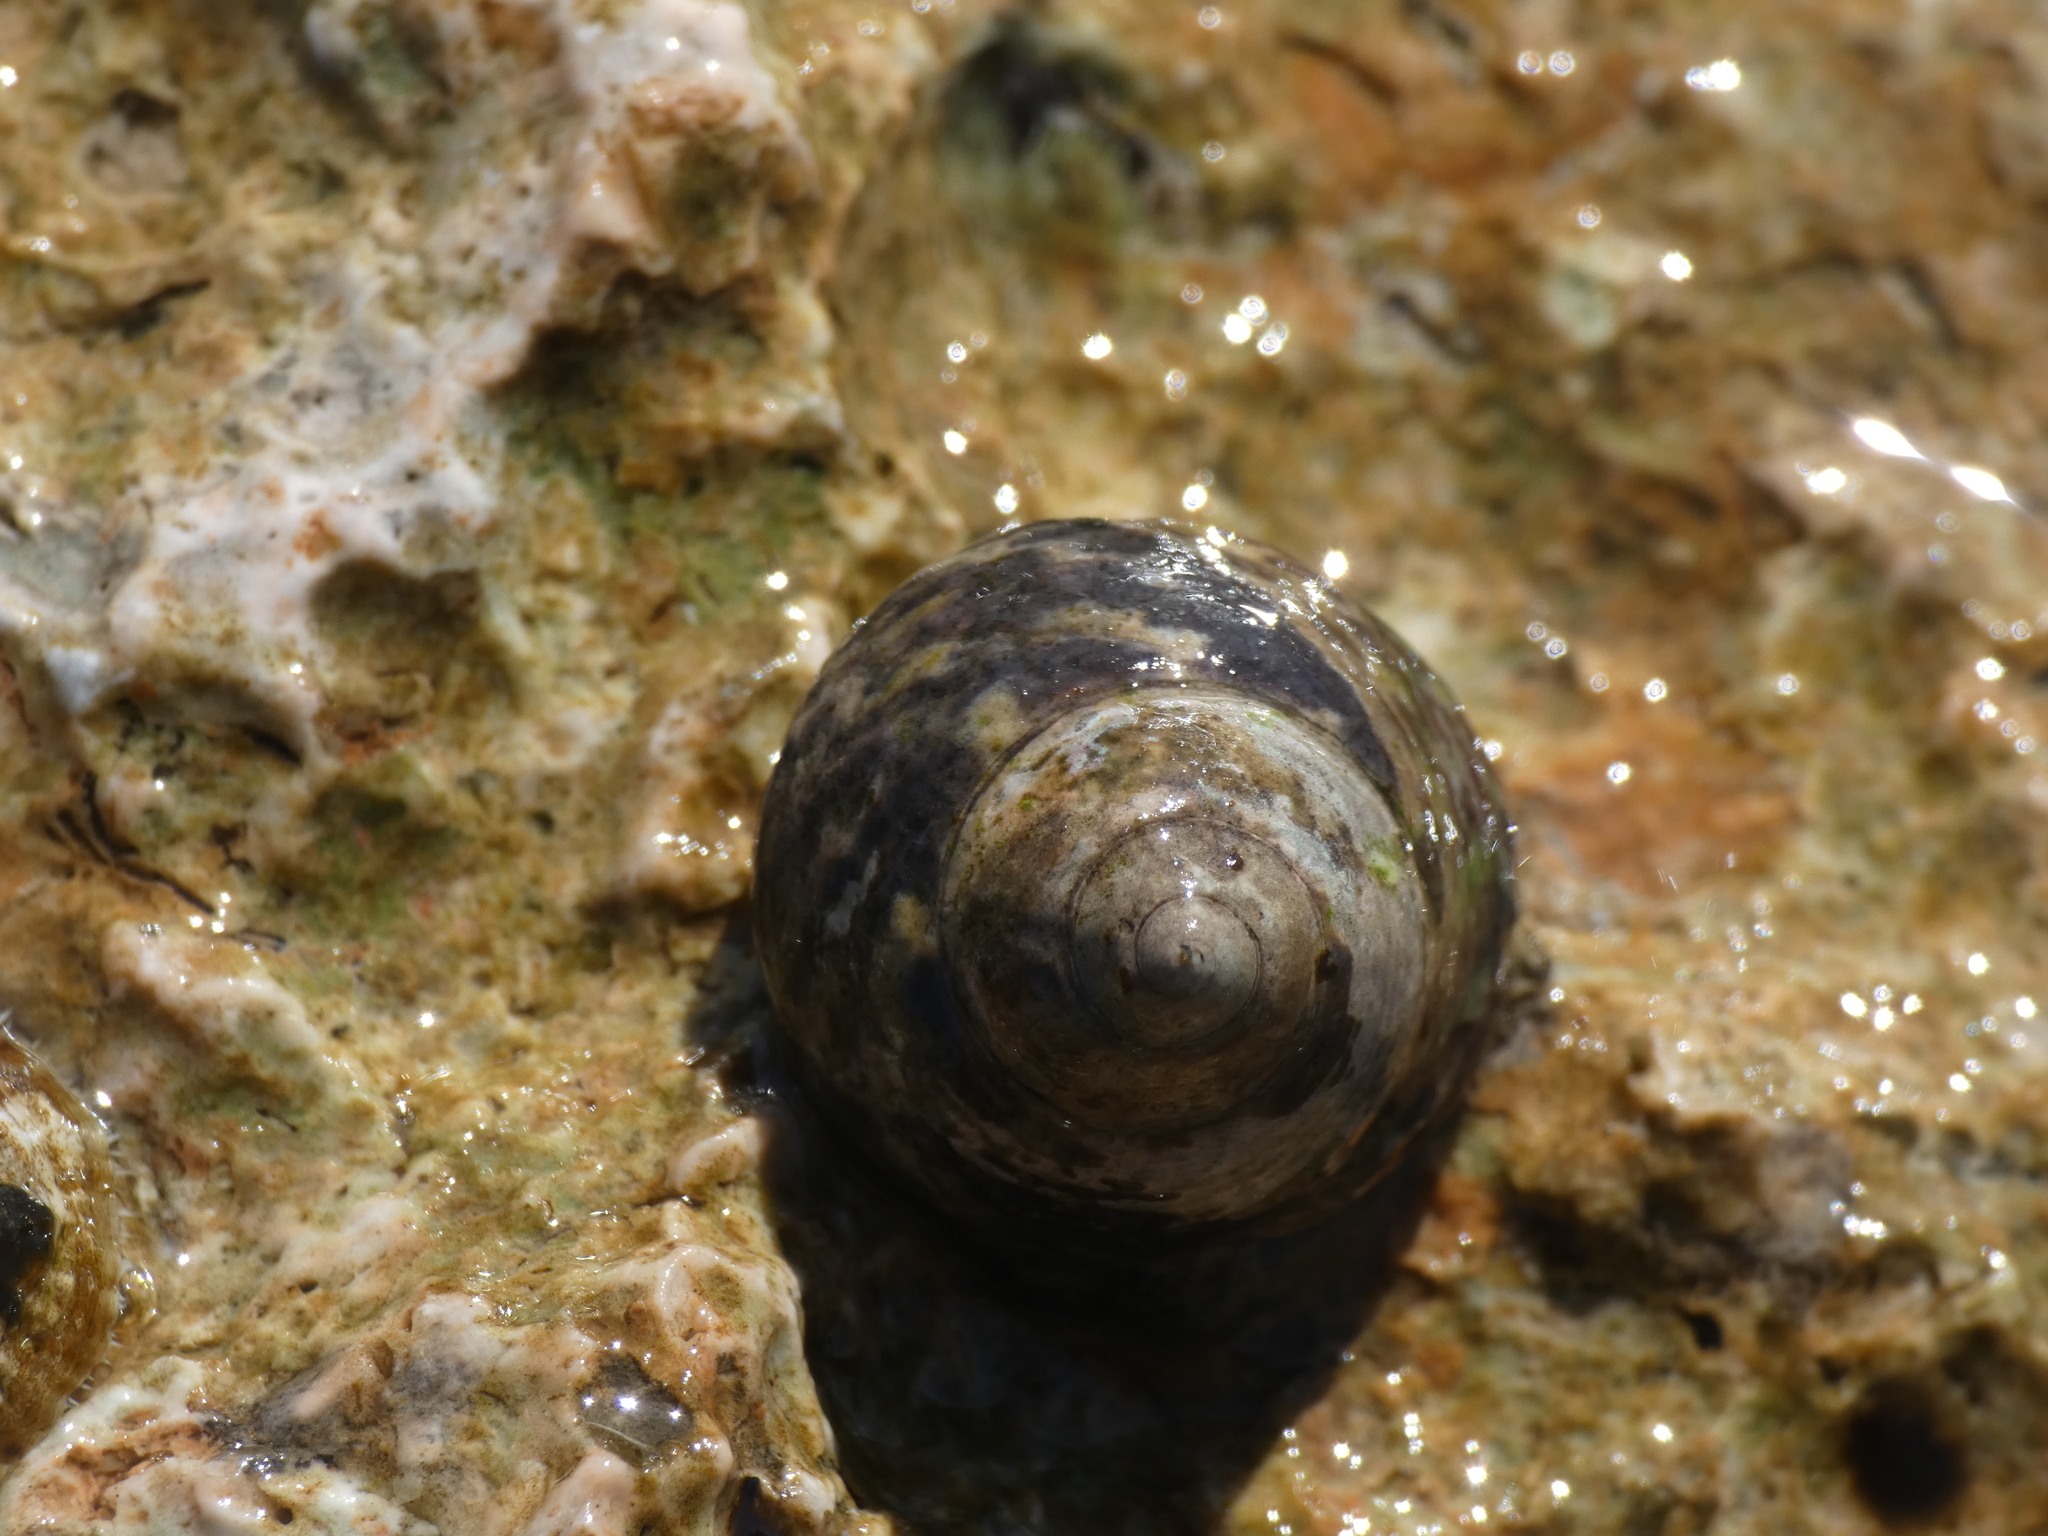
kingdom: Animalia
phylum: Mollusca
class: Gastropoda
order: Trochida
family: Trochidae
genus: Phorcus
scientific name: Phorcus turbinatus
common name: Turbinate monodont
